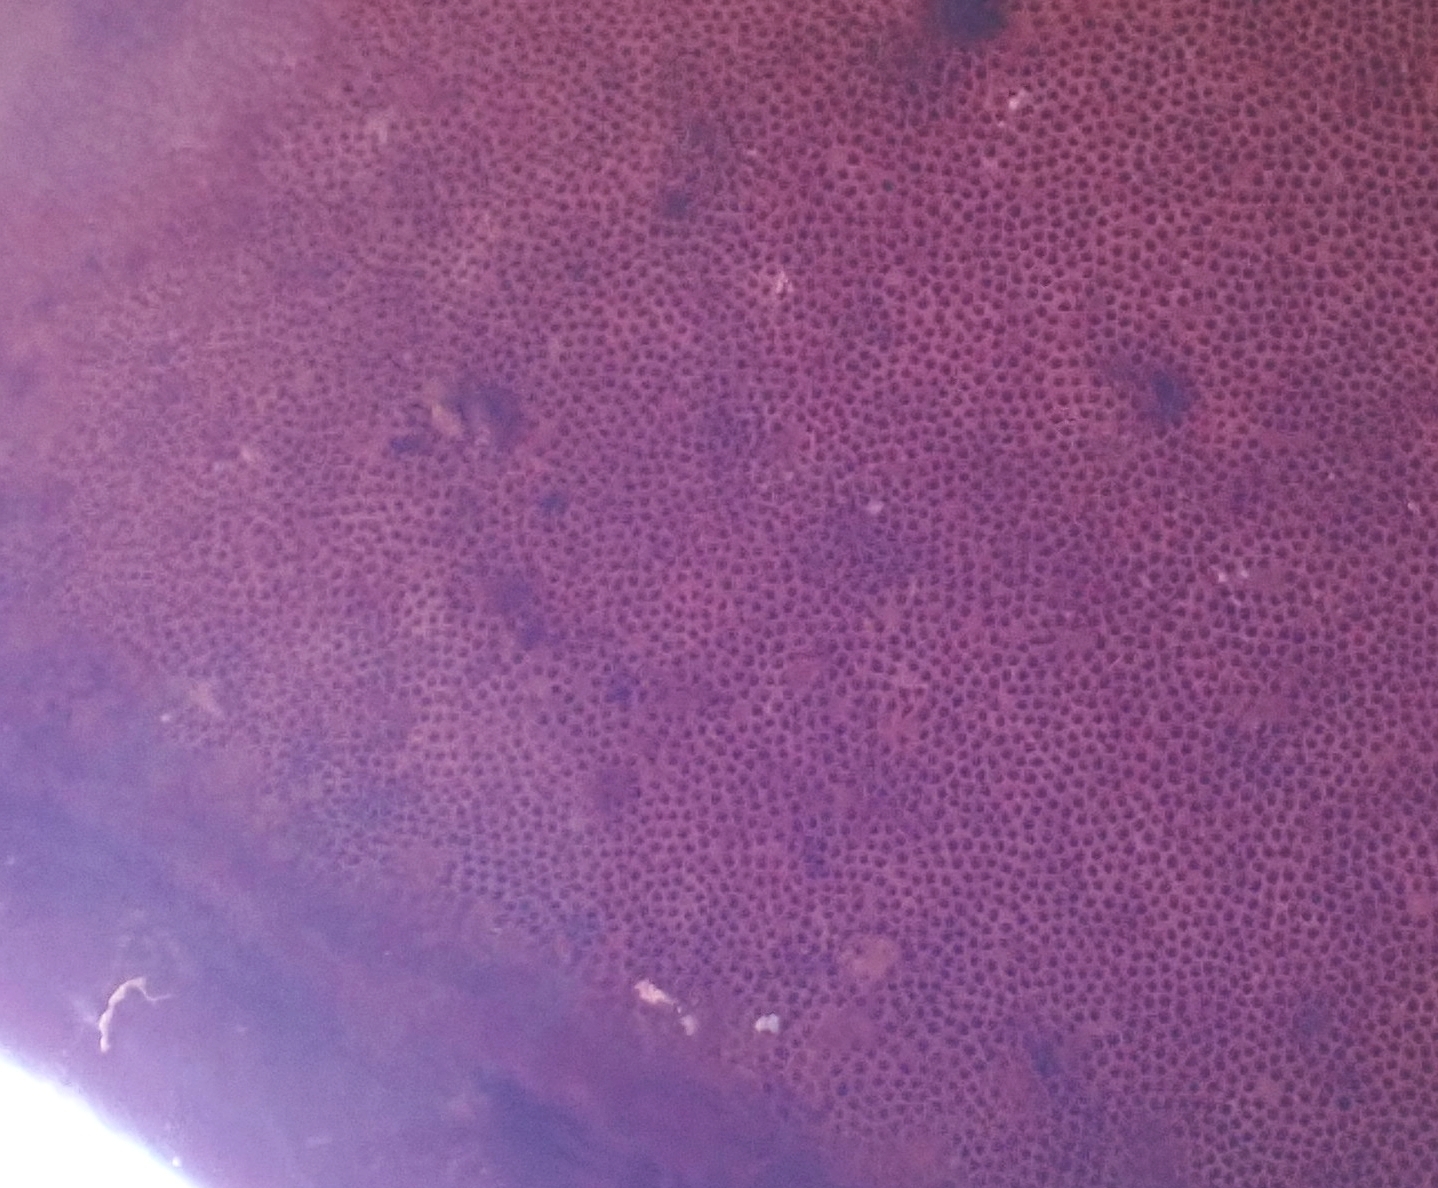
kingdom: Fungi
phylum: Basidiomycota
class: Agaricomycetes
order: Polyporales
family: Polyporaceae
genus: Ganoderma
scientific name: Ganoderma tsugae
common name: Hemlock varnish shelf
